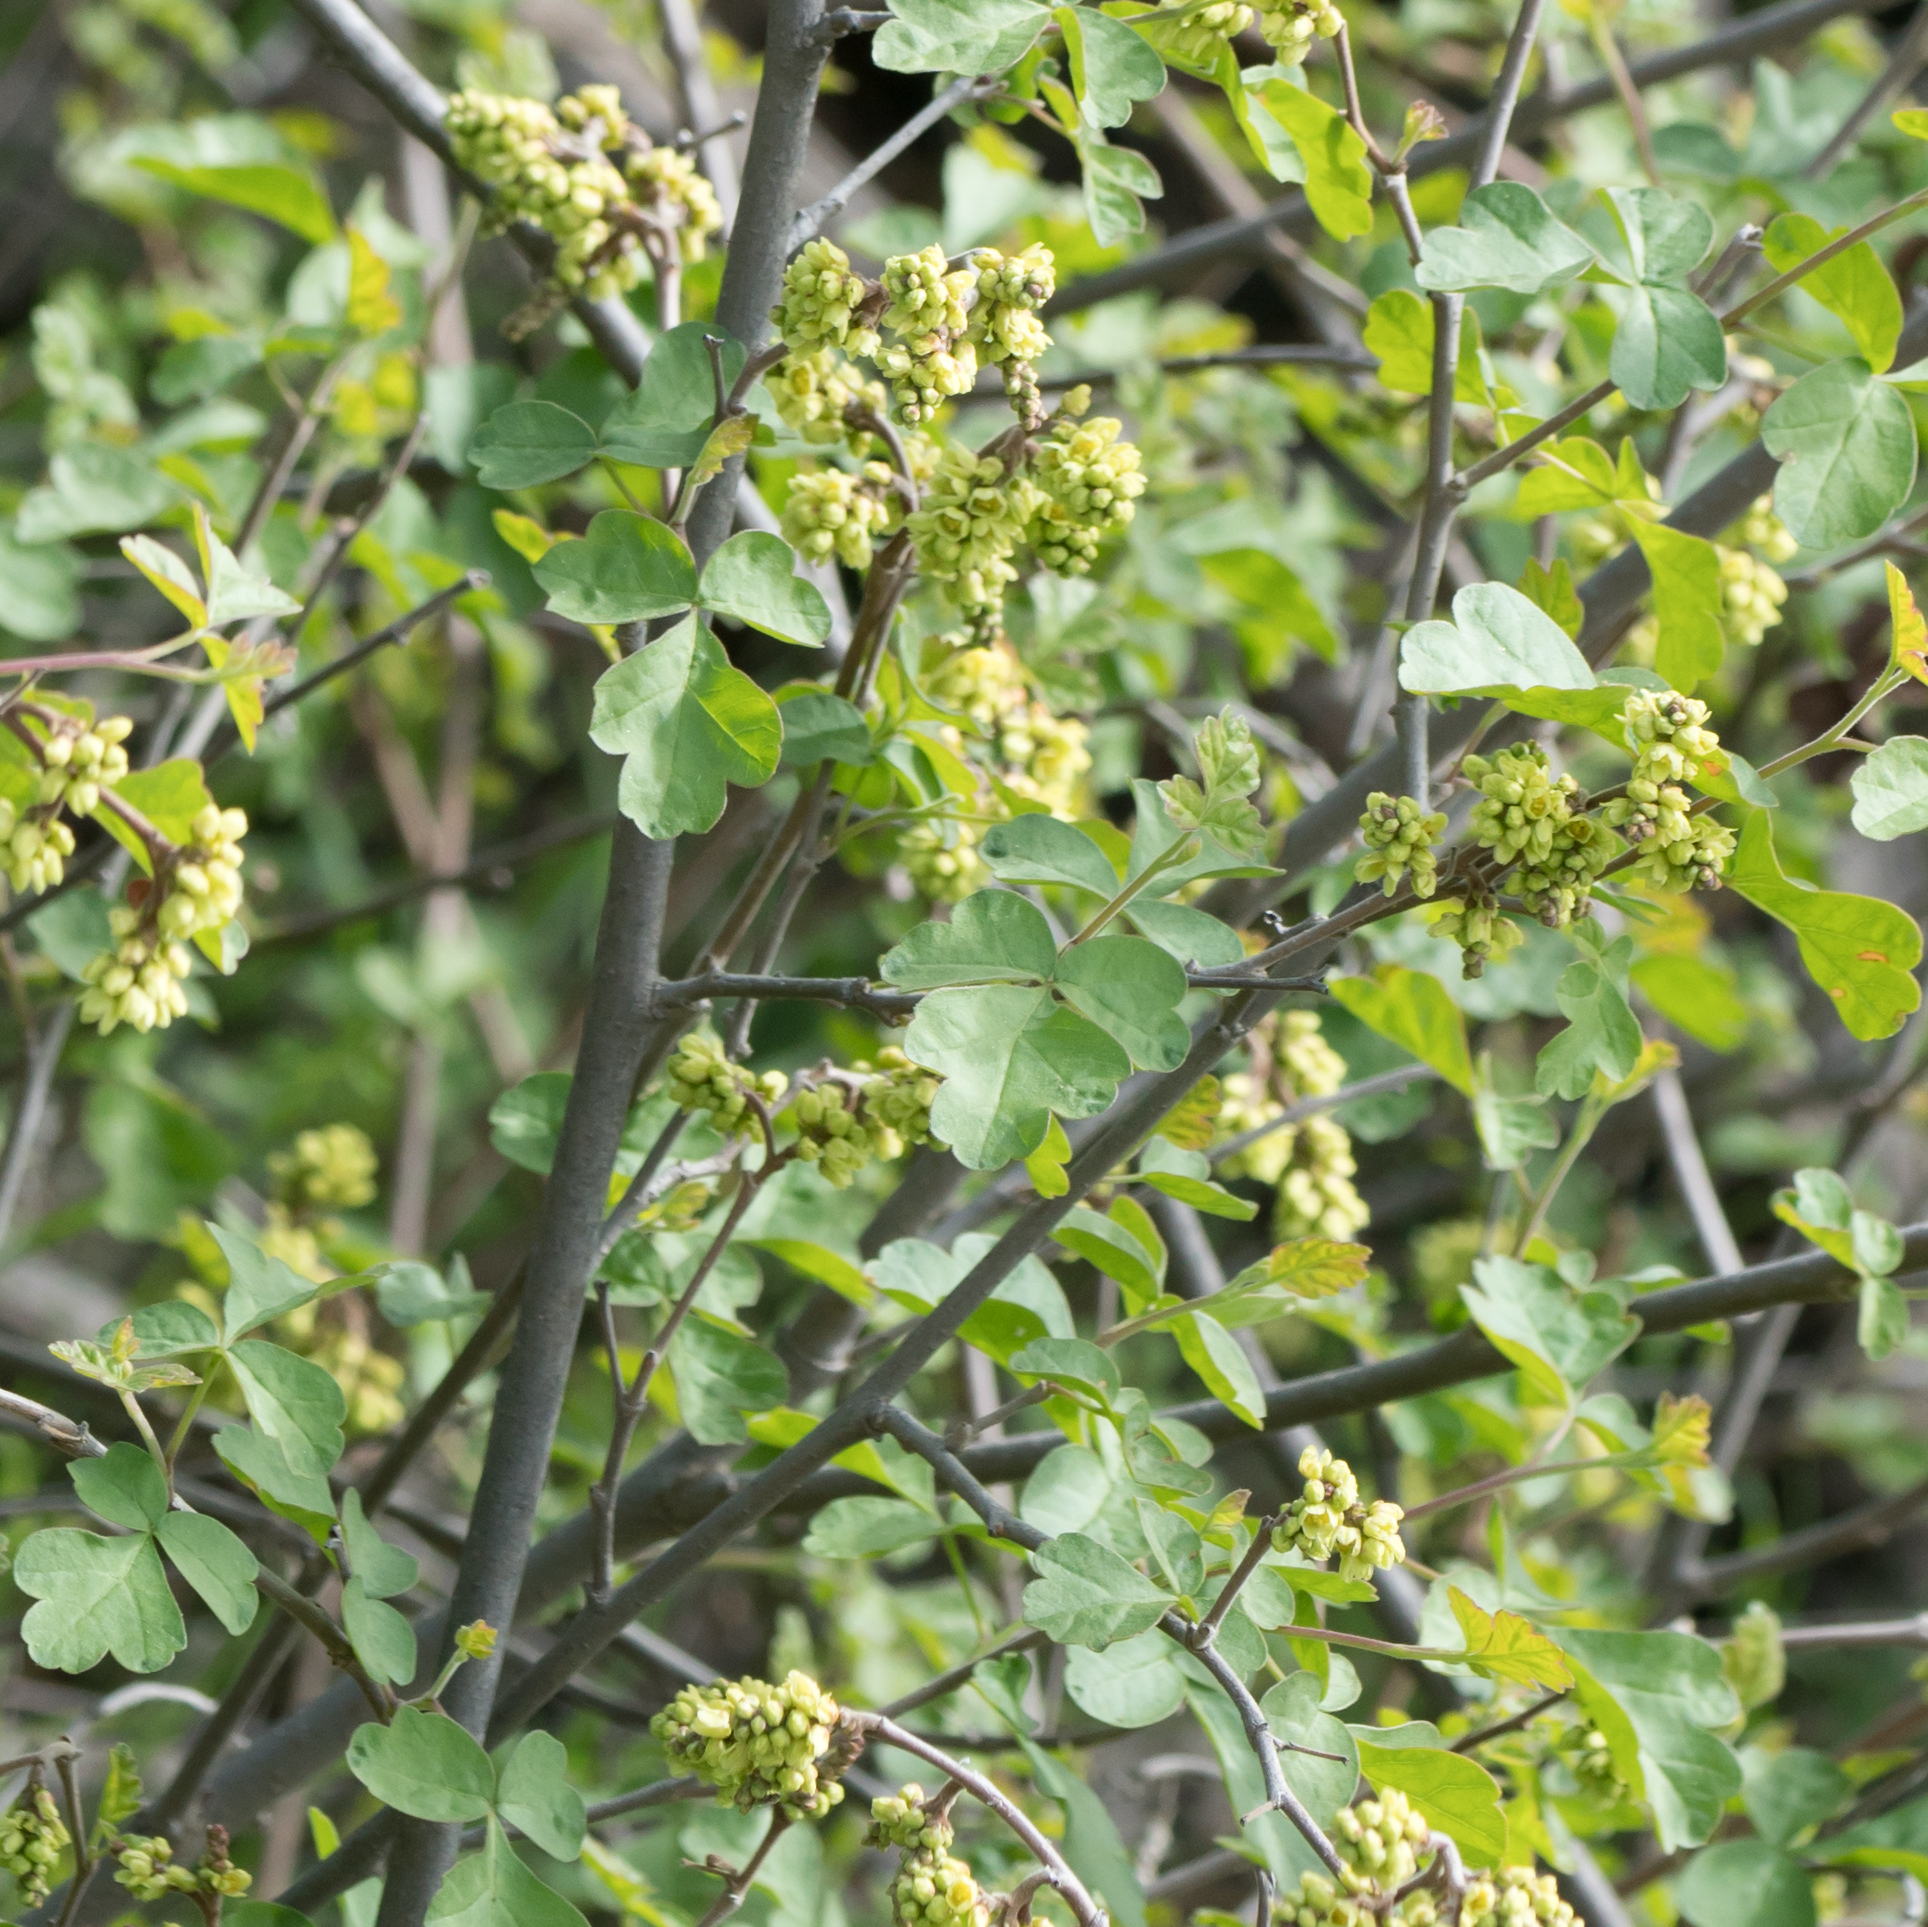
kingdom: Plantae
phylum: Tracheophyta
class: Magnoliopsida
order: Sapindales
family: Anacardiaceae
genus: Rhus
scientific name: Rhus aromatica
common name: Aromatic sumac
